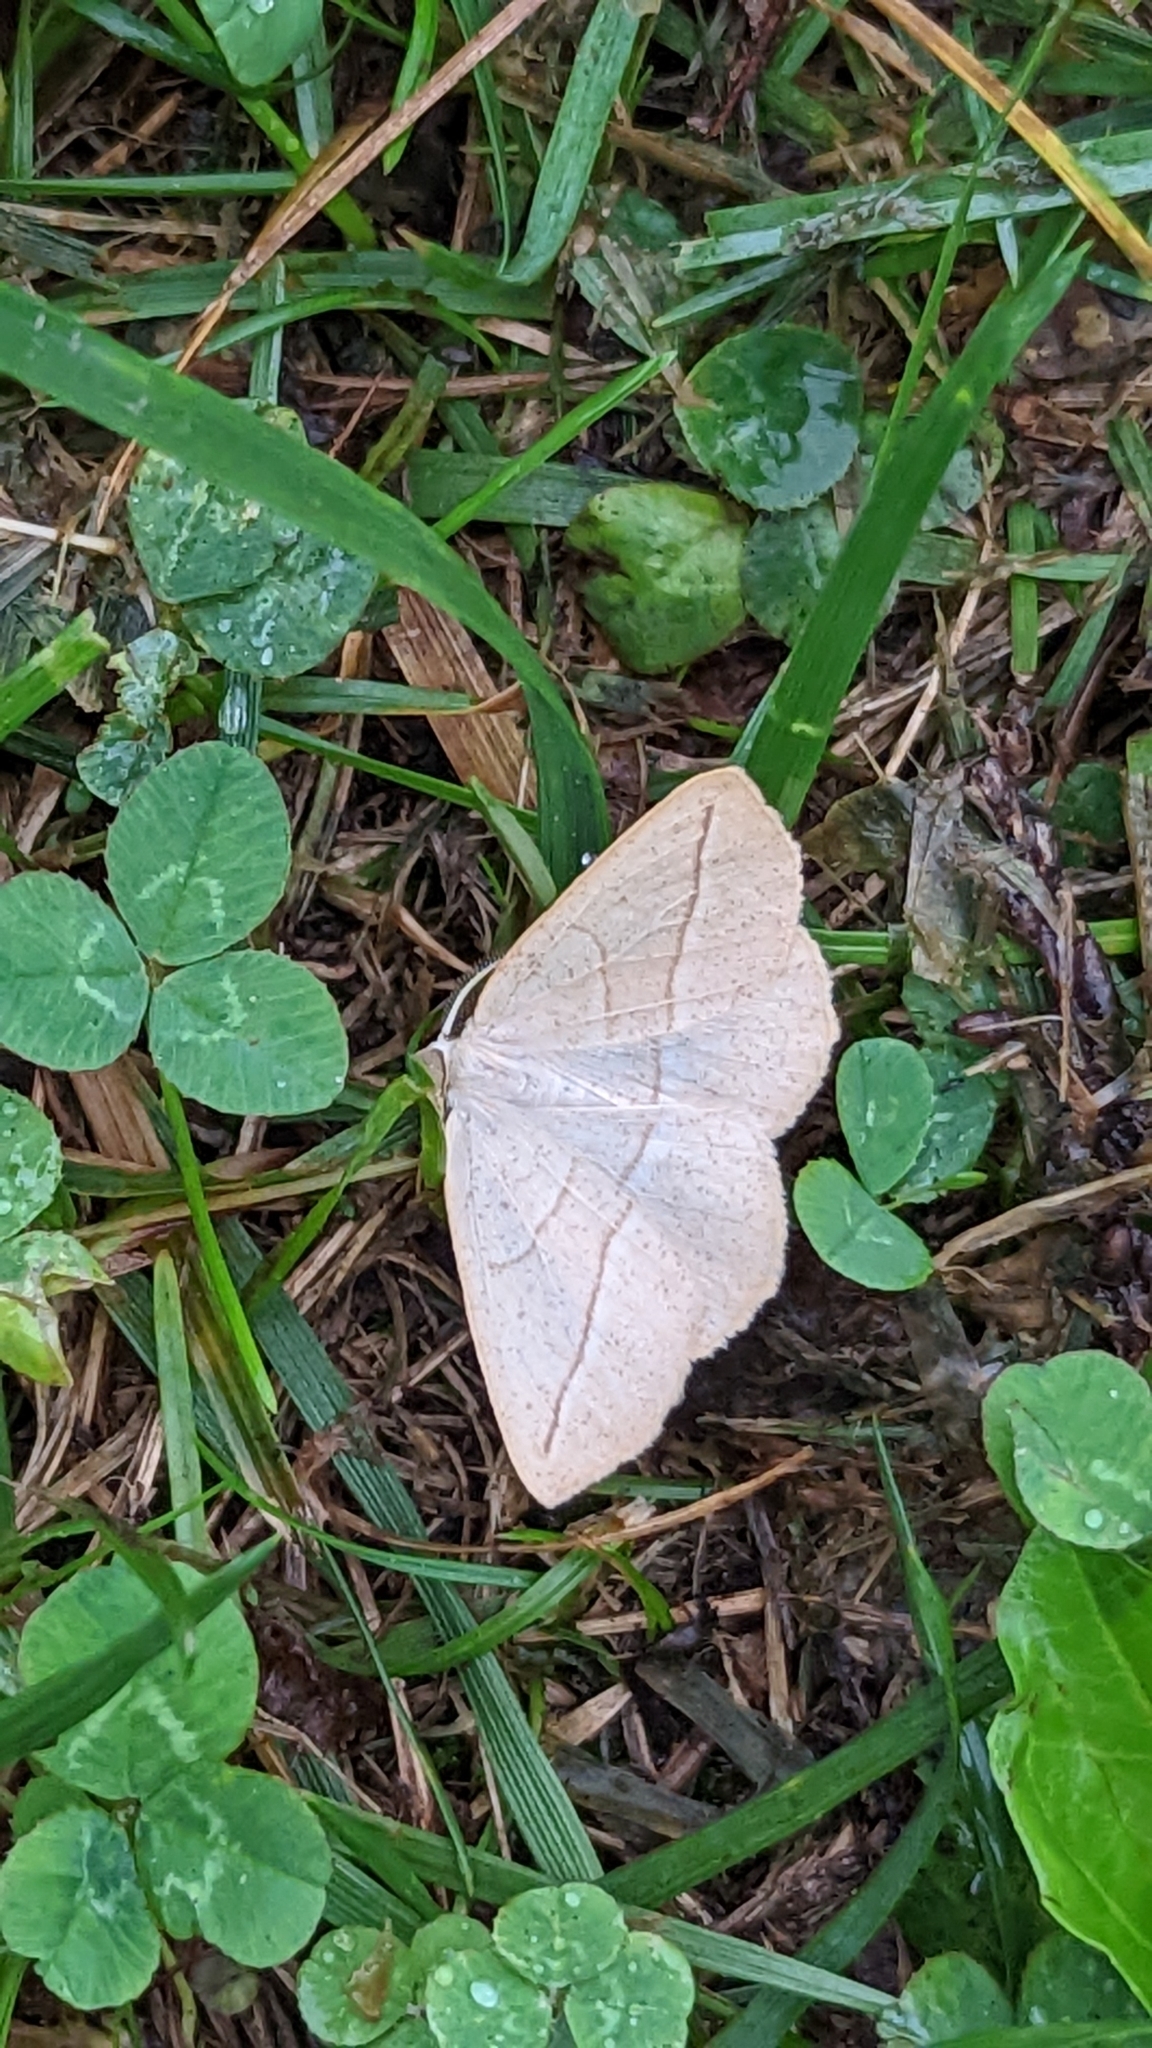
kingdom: Animalia
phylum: Arthropoda
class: Insecta
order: Lepidoptera
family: Geometridae
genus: Eusarca
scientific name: Eusarca confusaria
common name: Confused eusarca
